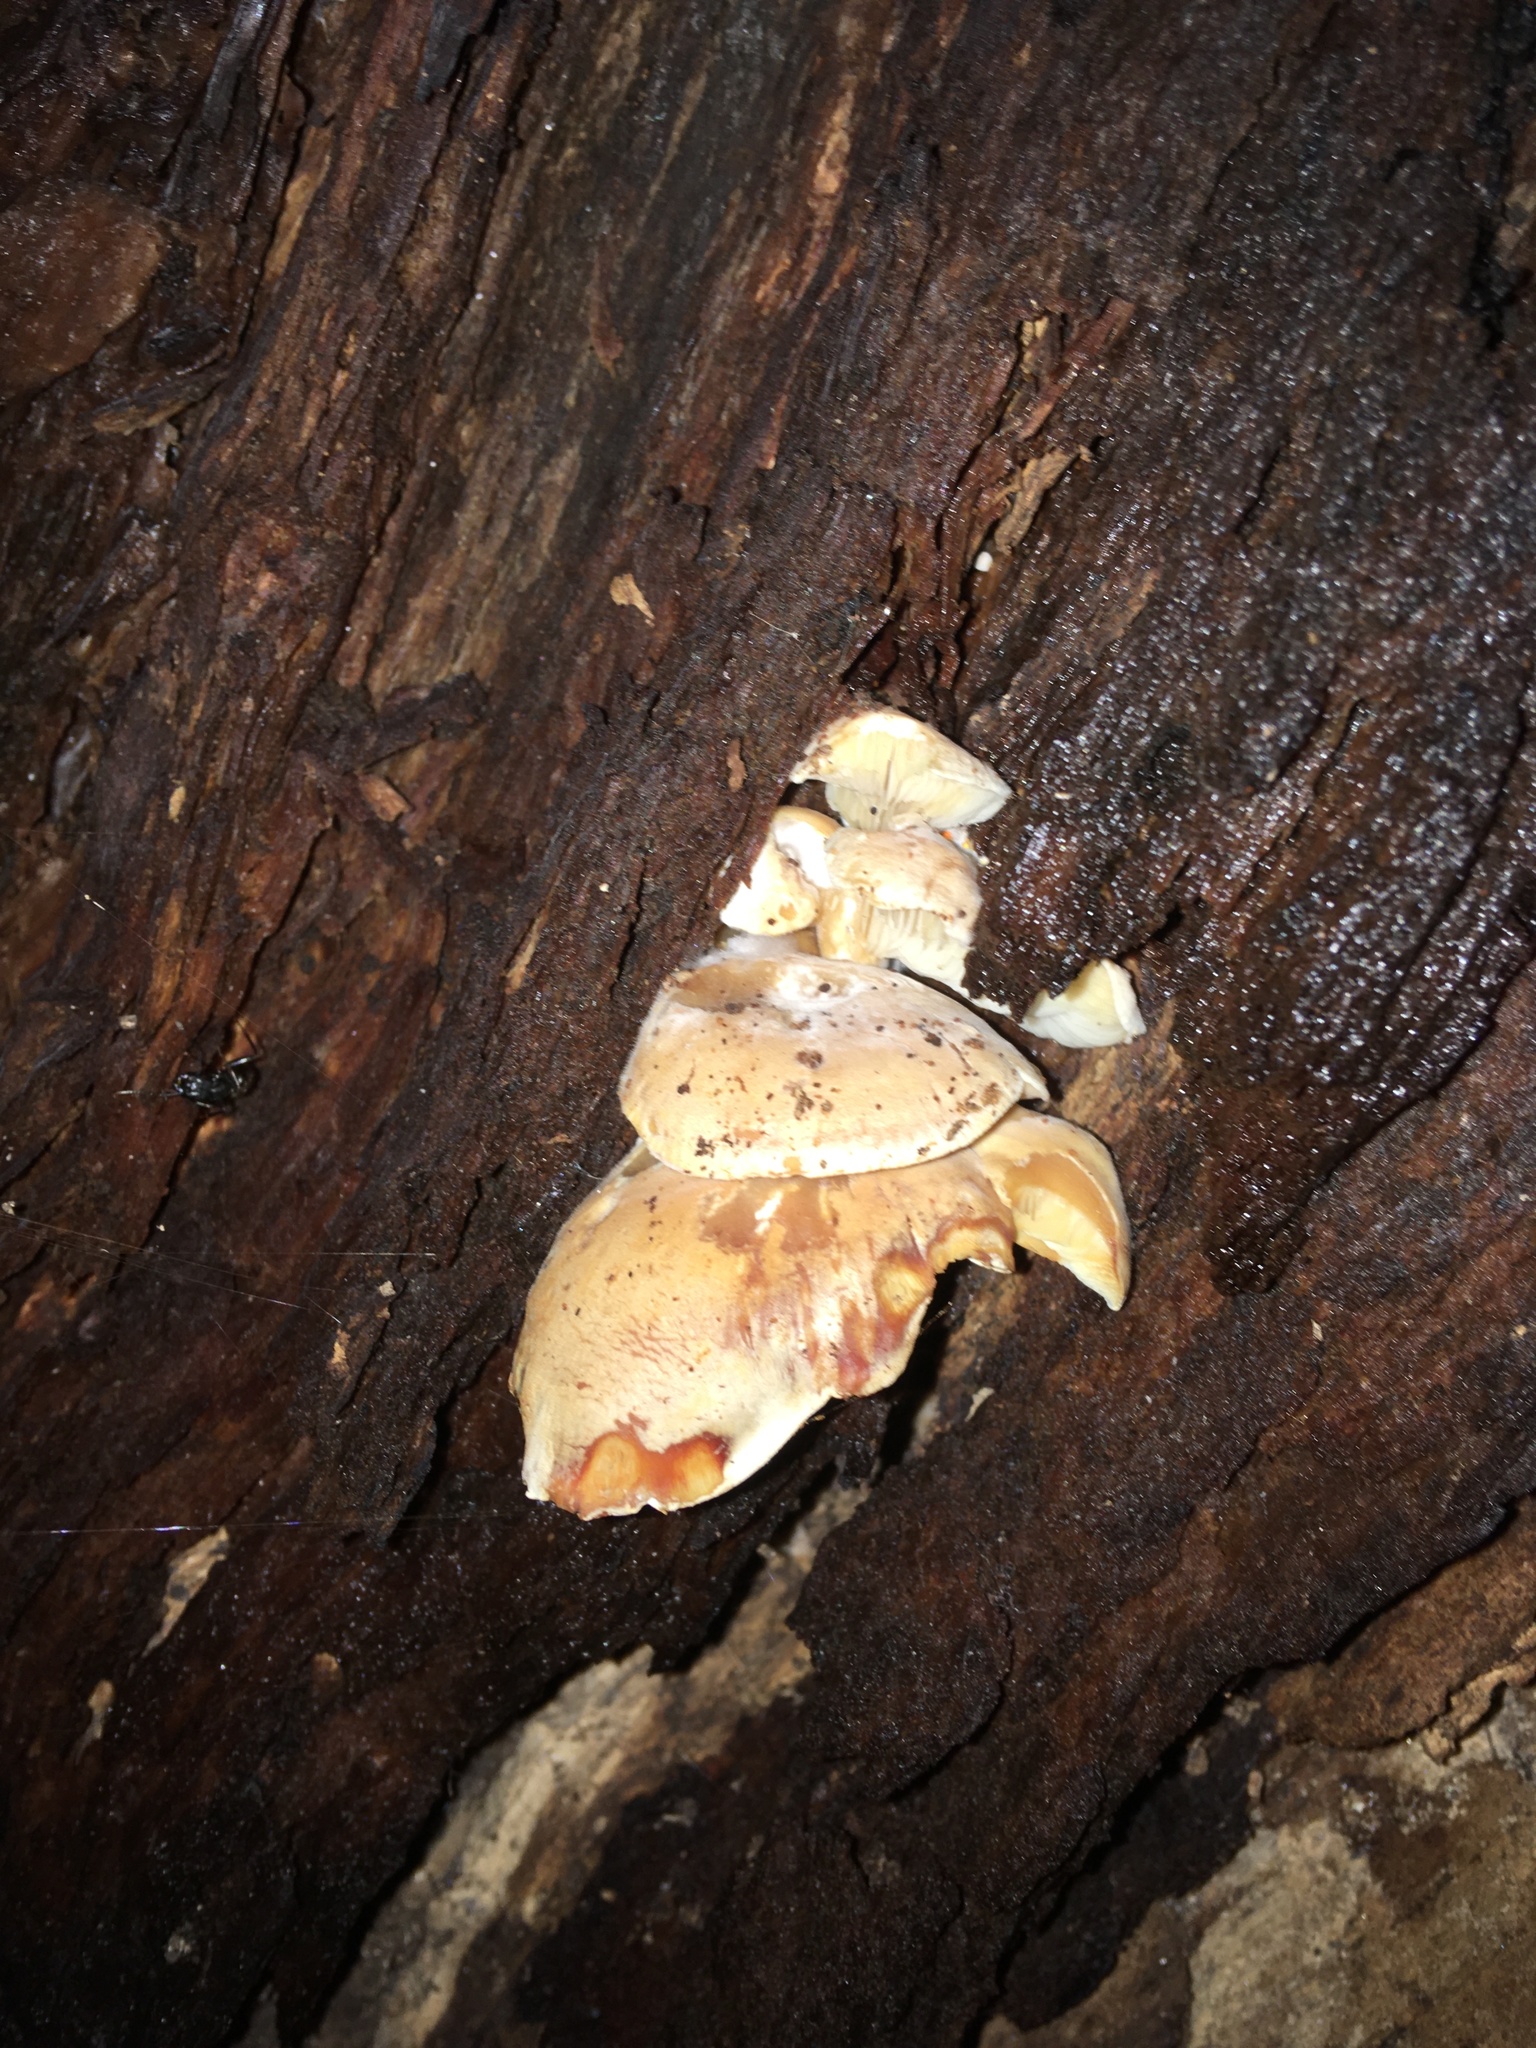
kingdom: Fungi
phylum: Basidiomycota
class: Agaricomycetes
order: Agaricales
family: Lyophyllaceae
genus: Ossicaulis
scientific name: Ossicaulis lignatilis
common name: Mealy oyster
